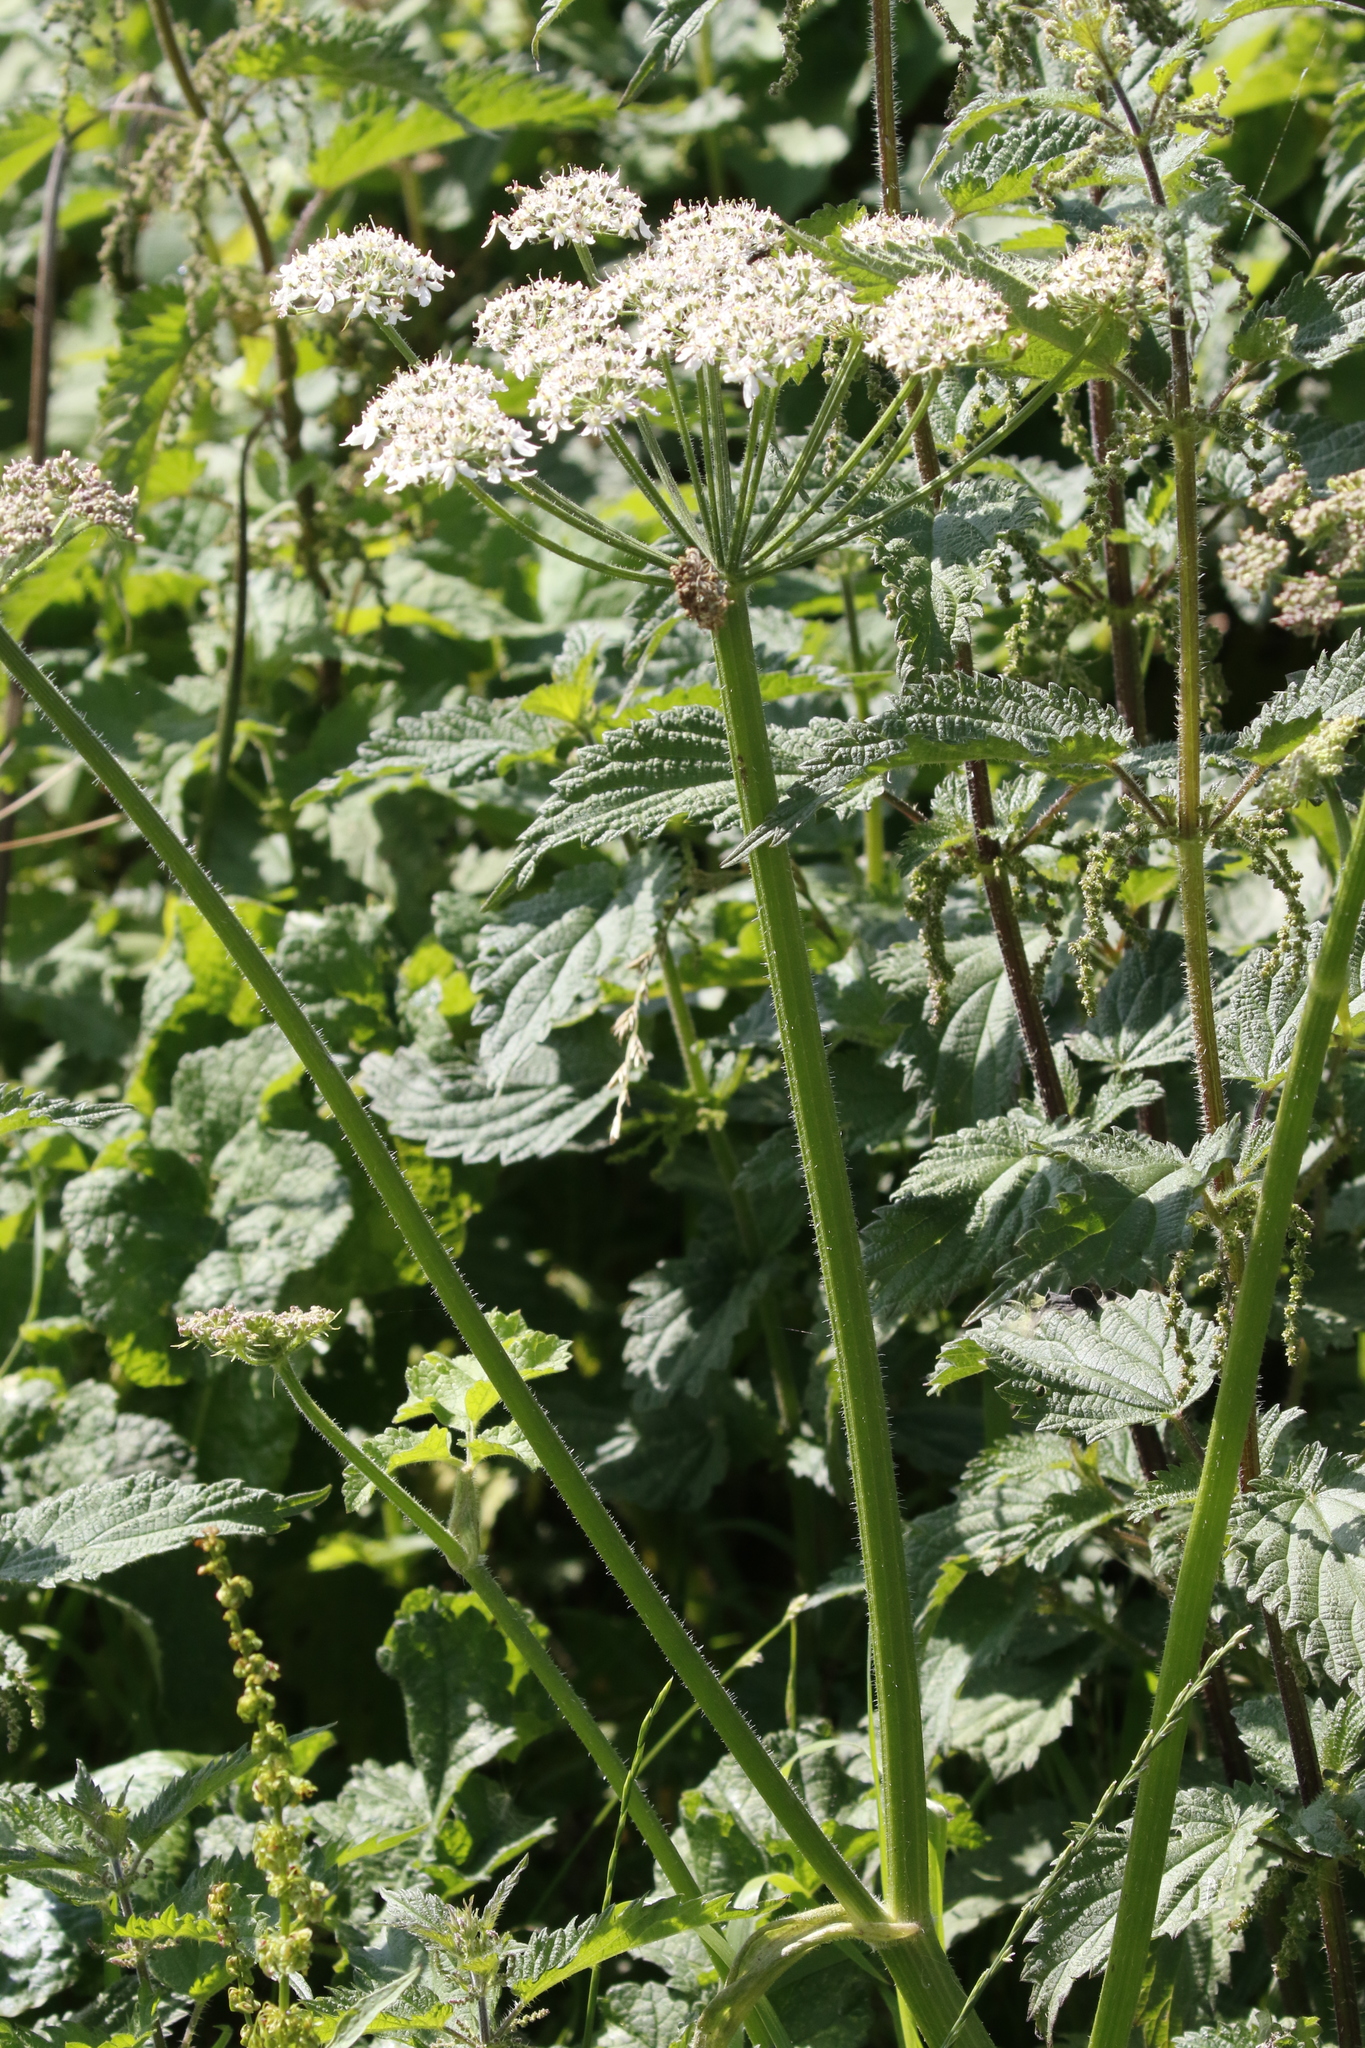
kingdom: Plantae
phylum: Tracheophyta
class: Magnoliopsida
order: Apiales
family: Apiaceae
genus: Heracleum
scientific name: Heracleum sphondylium
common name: Hogweed
